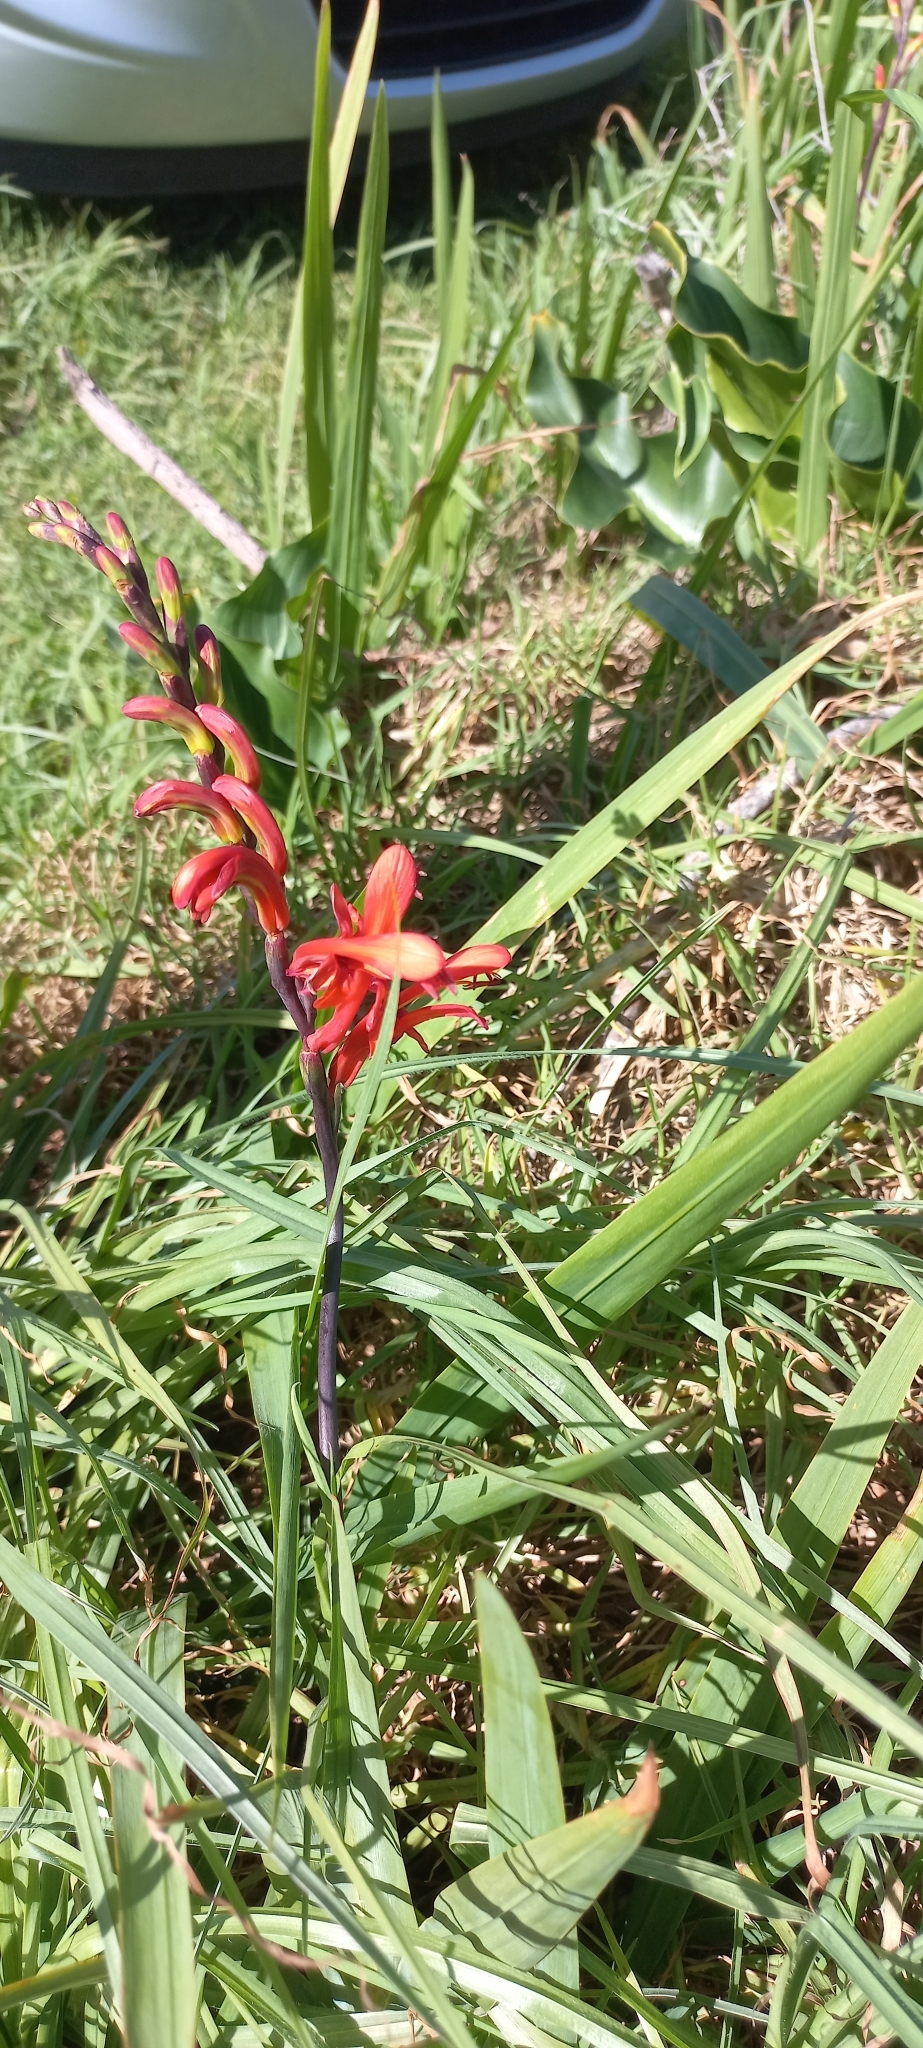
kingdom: Plantae
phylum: Tracheophyta
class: Liliopsida
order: Asparagales
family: Iridaceae
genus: Chasmanthe
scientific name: Chasmanthe aethiopica
